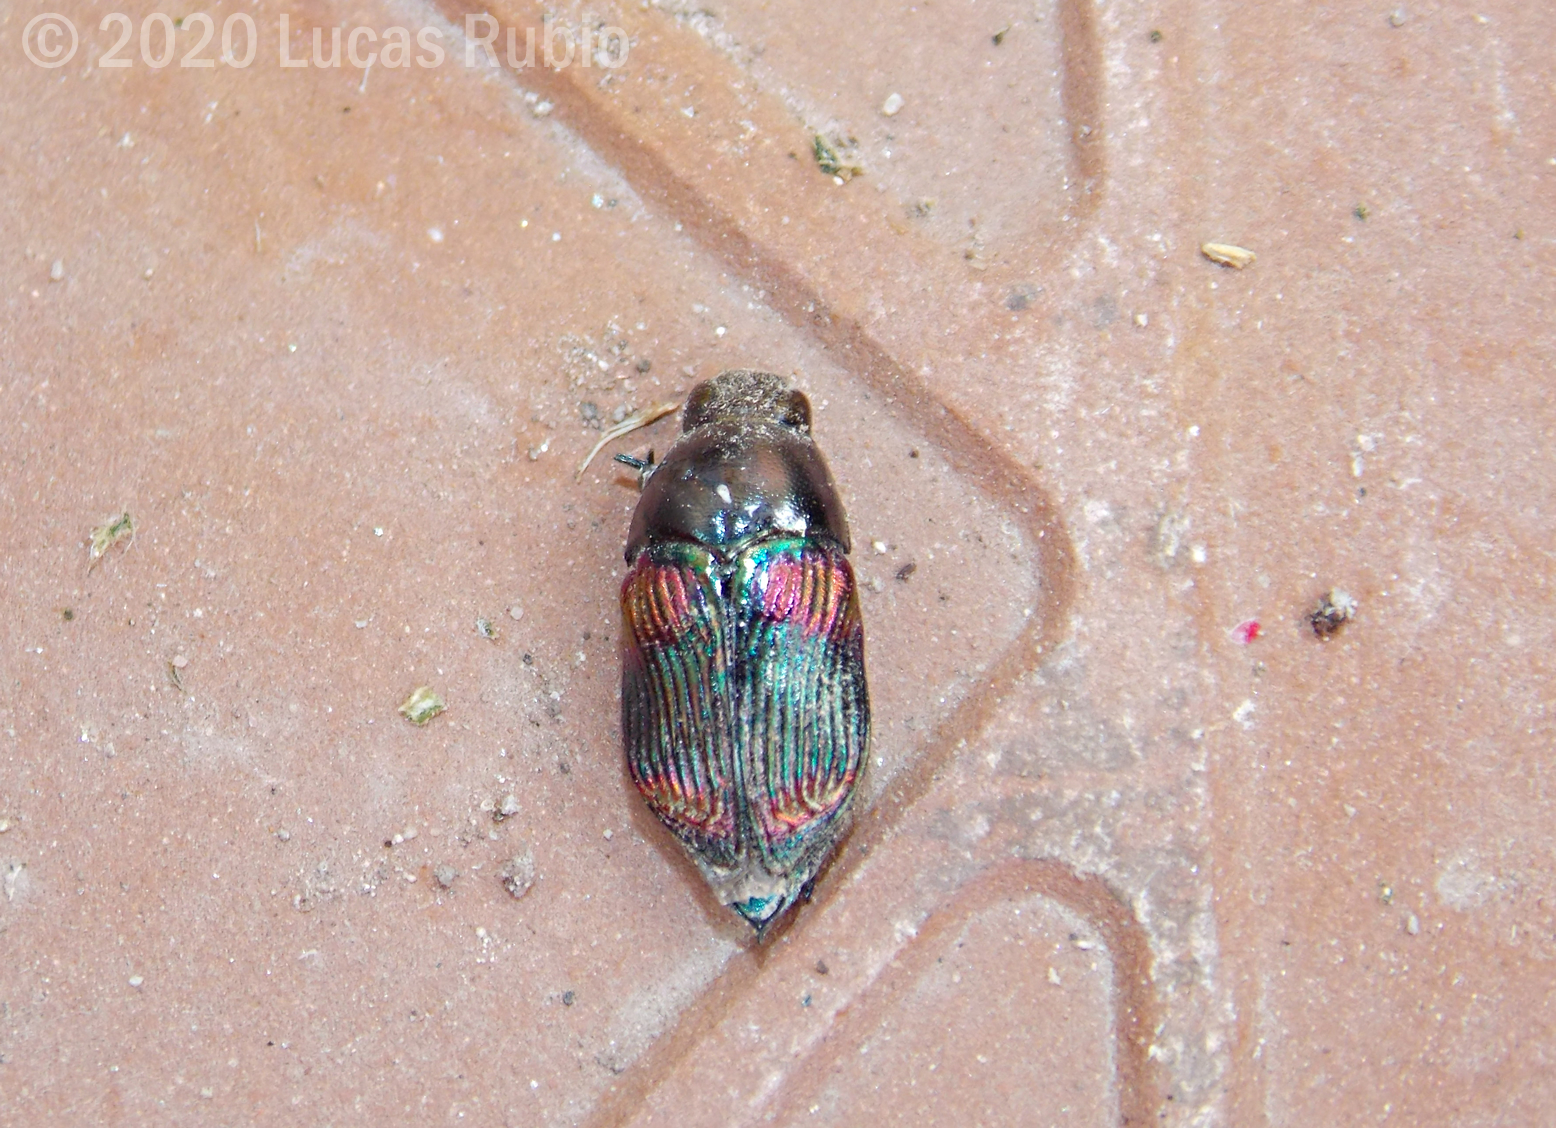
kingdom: Animalia
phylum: Arthropoda
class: Insecta
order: Coleoptera
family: Buprestidae
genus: Mimicoclytrina
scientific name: Mimicoclytrina childreni
